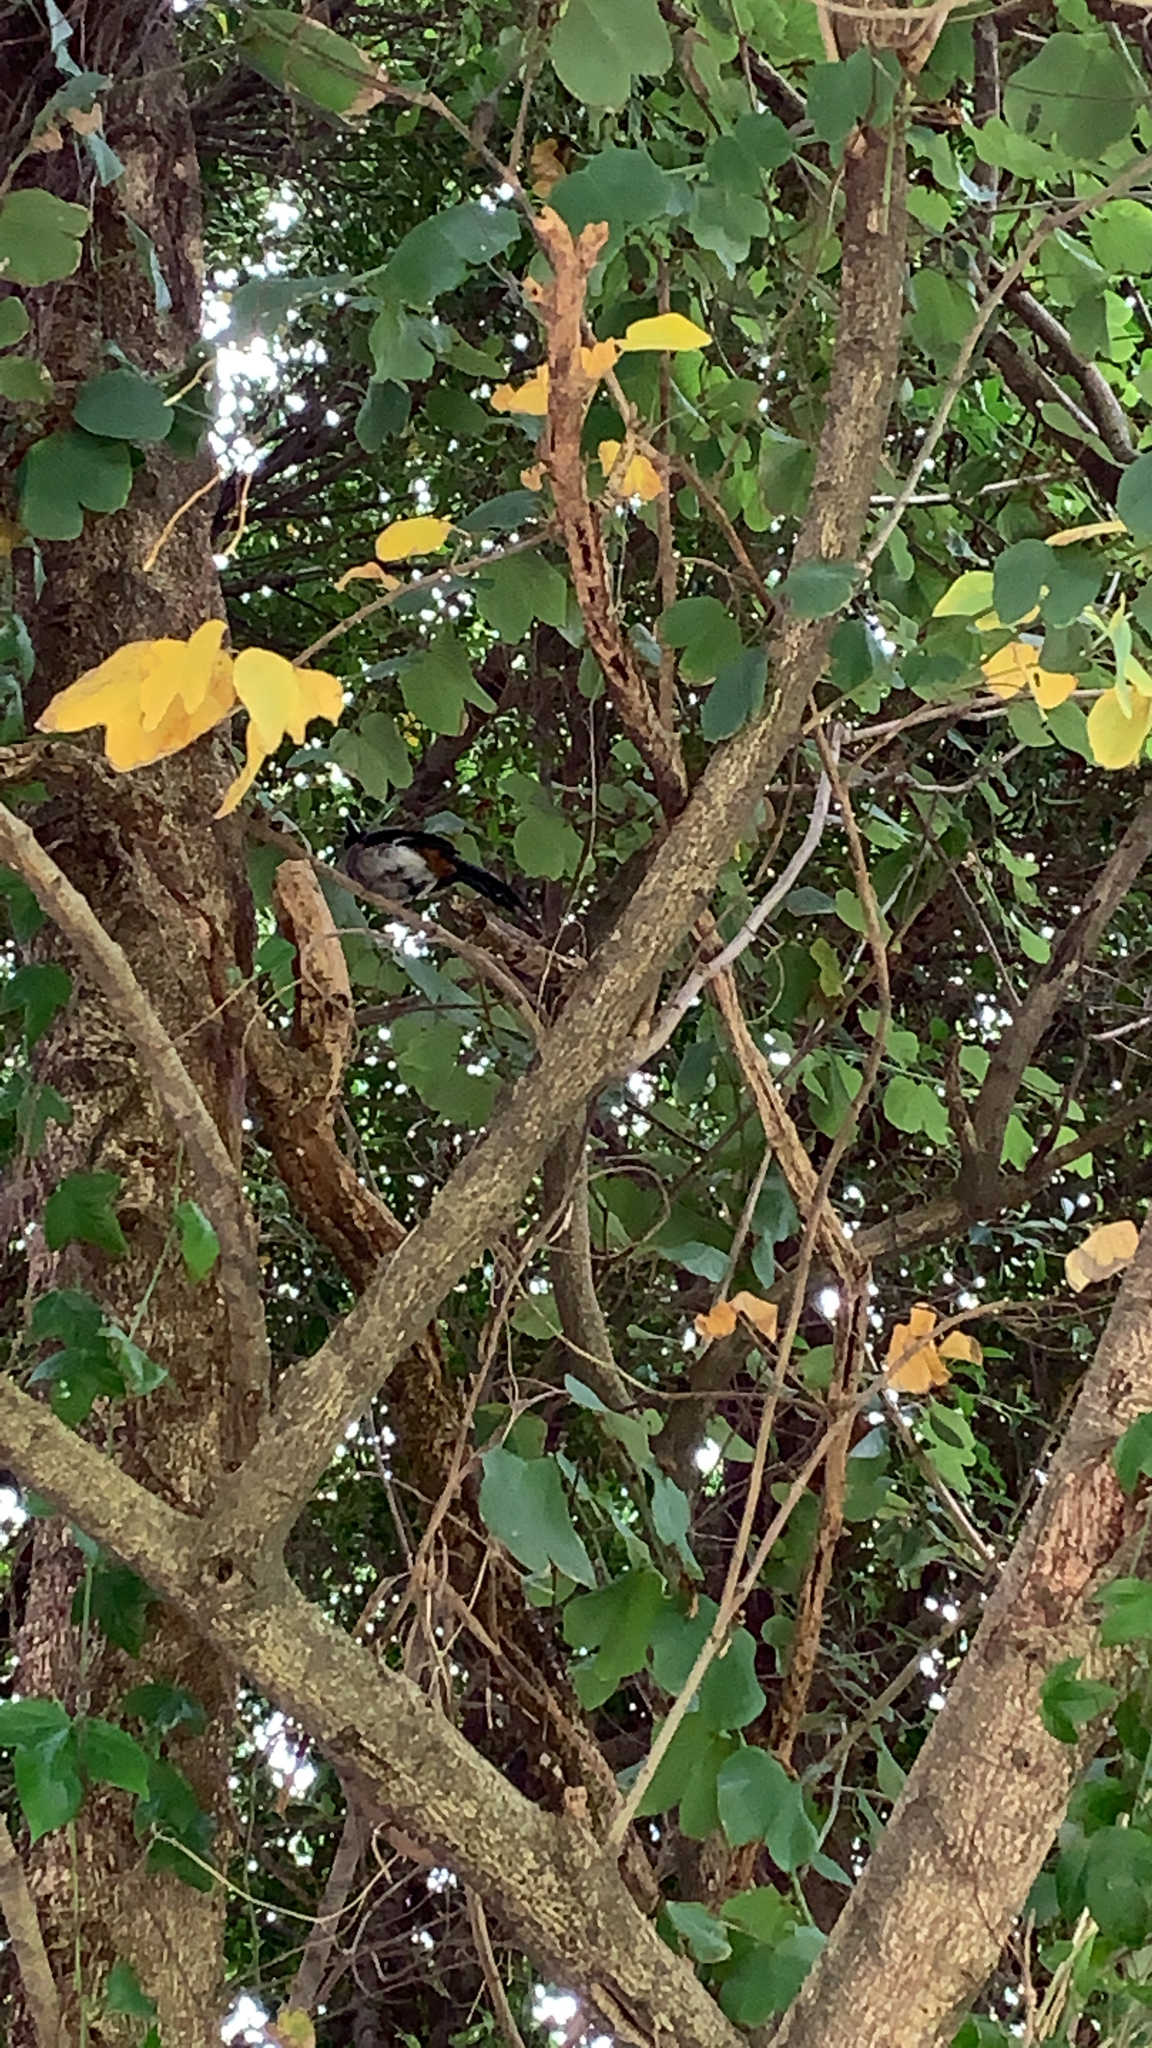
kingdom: Animalia
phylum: Chordata
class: Aves
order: Passeriformes
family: Corvidae
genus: Dendrocitta
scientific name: Dendrocitta formosae
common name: Grey treepie
